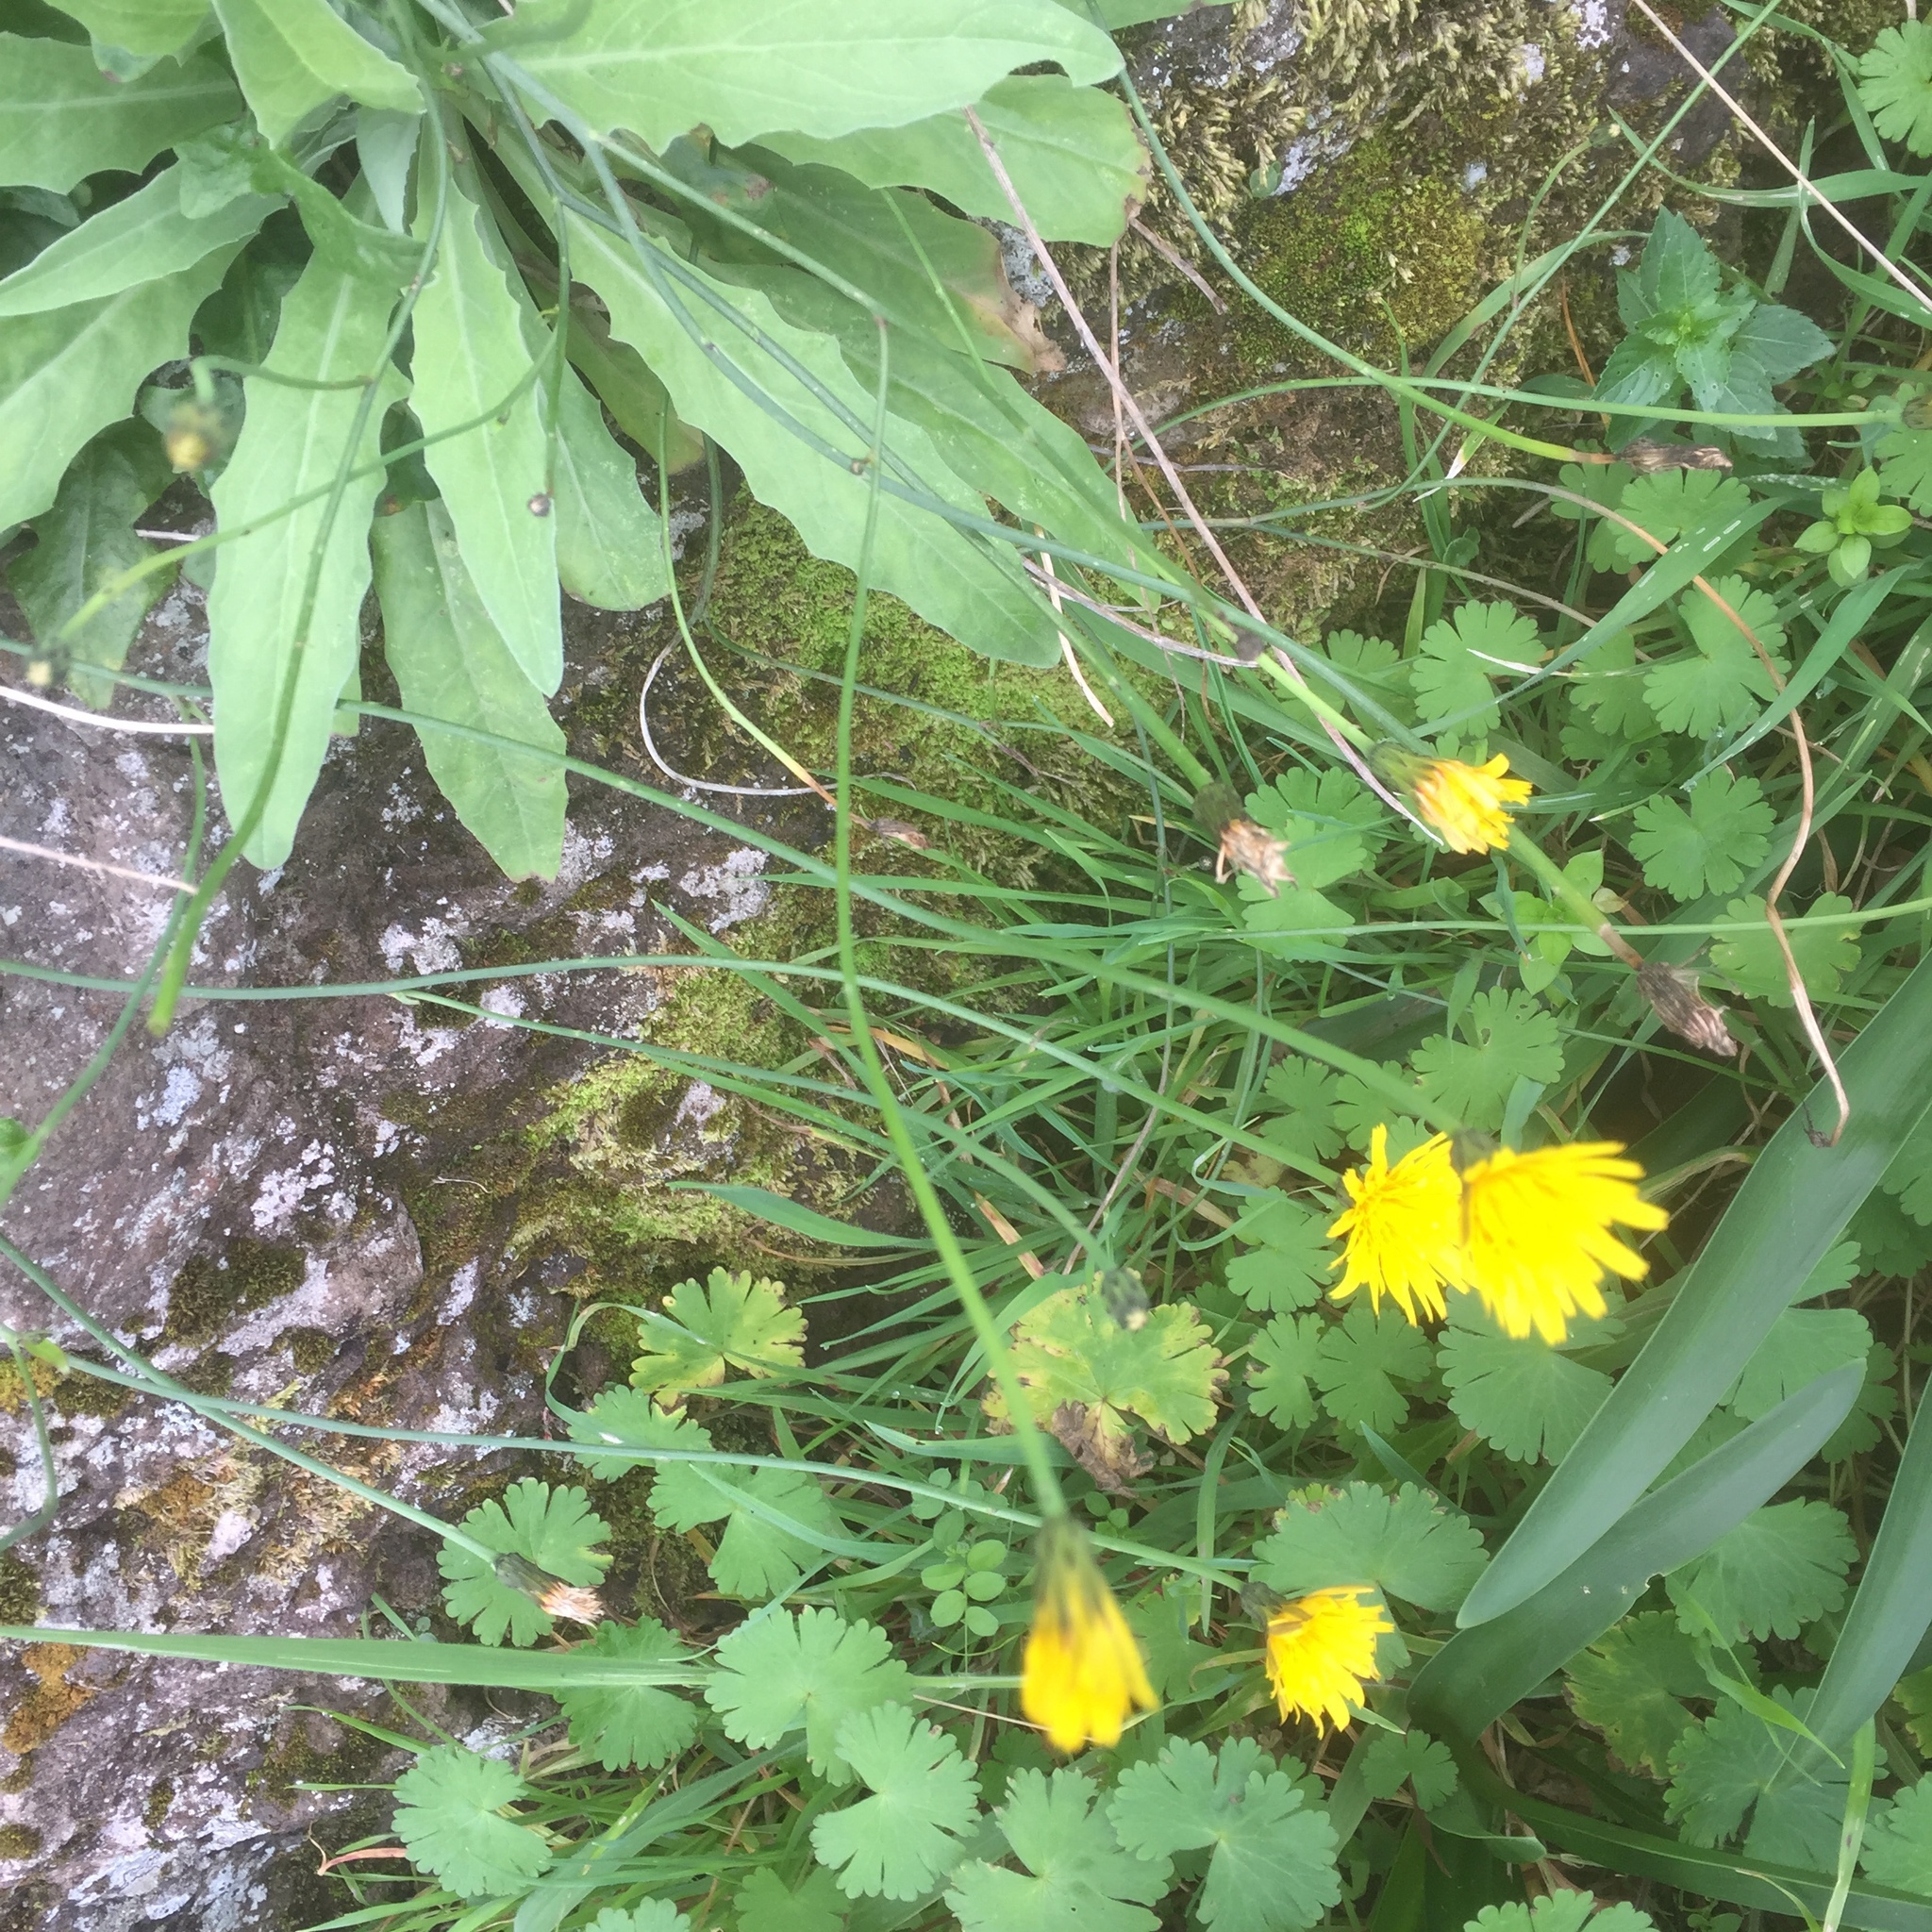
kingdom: Plantae
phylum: Tracheophyta
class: Magnoliopsida
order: Asterales
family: Asteraceae
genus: Hypochaeris
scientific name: Hypochaeris radicata
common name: Flatweed
